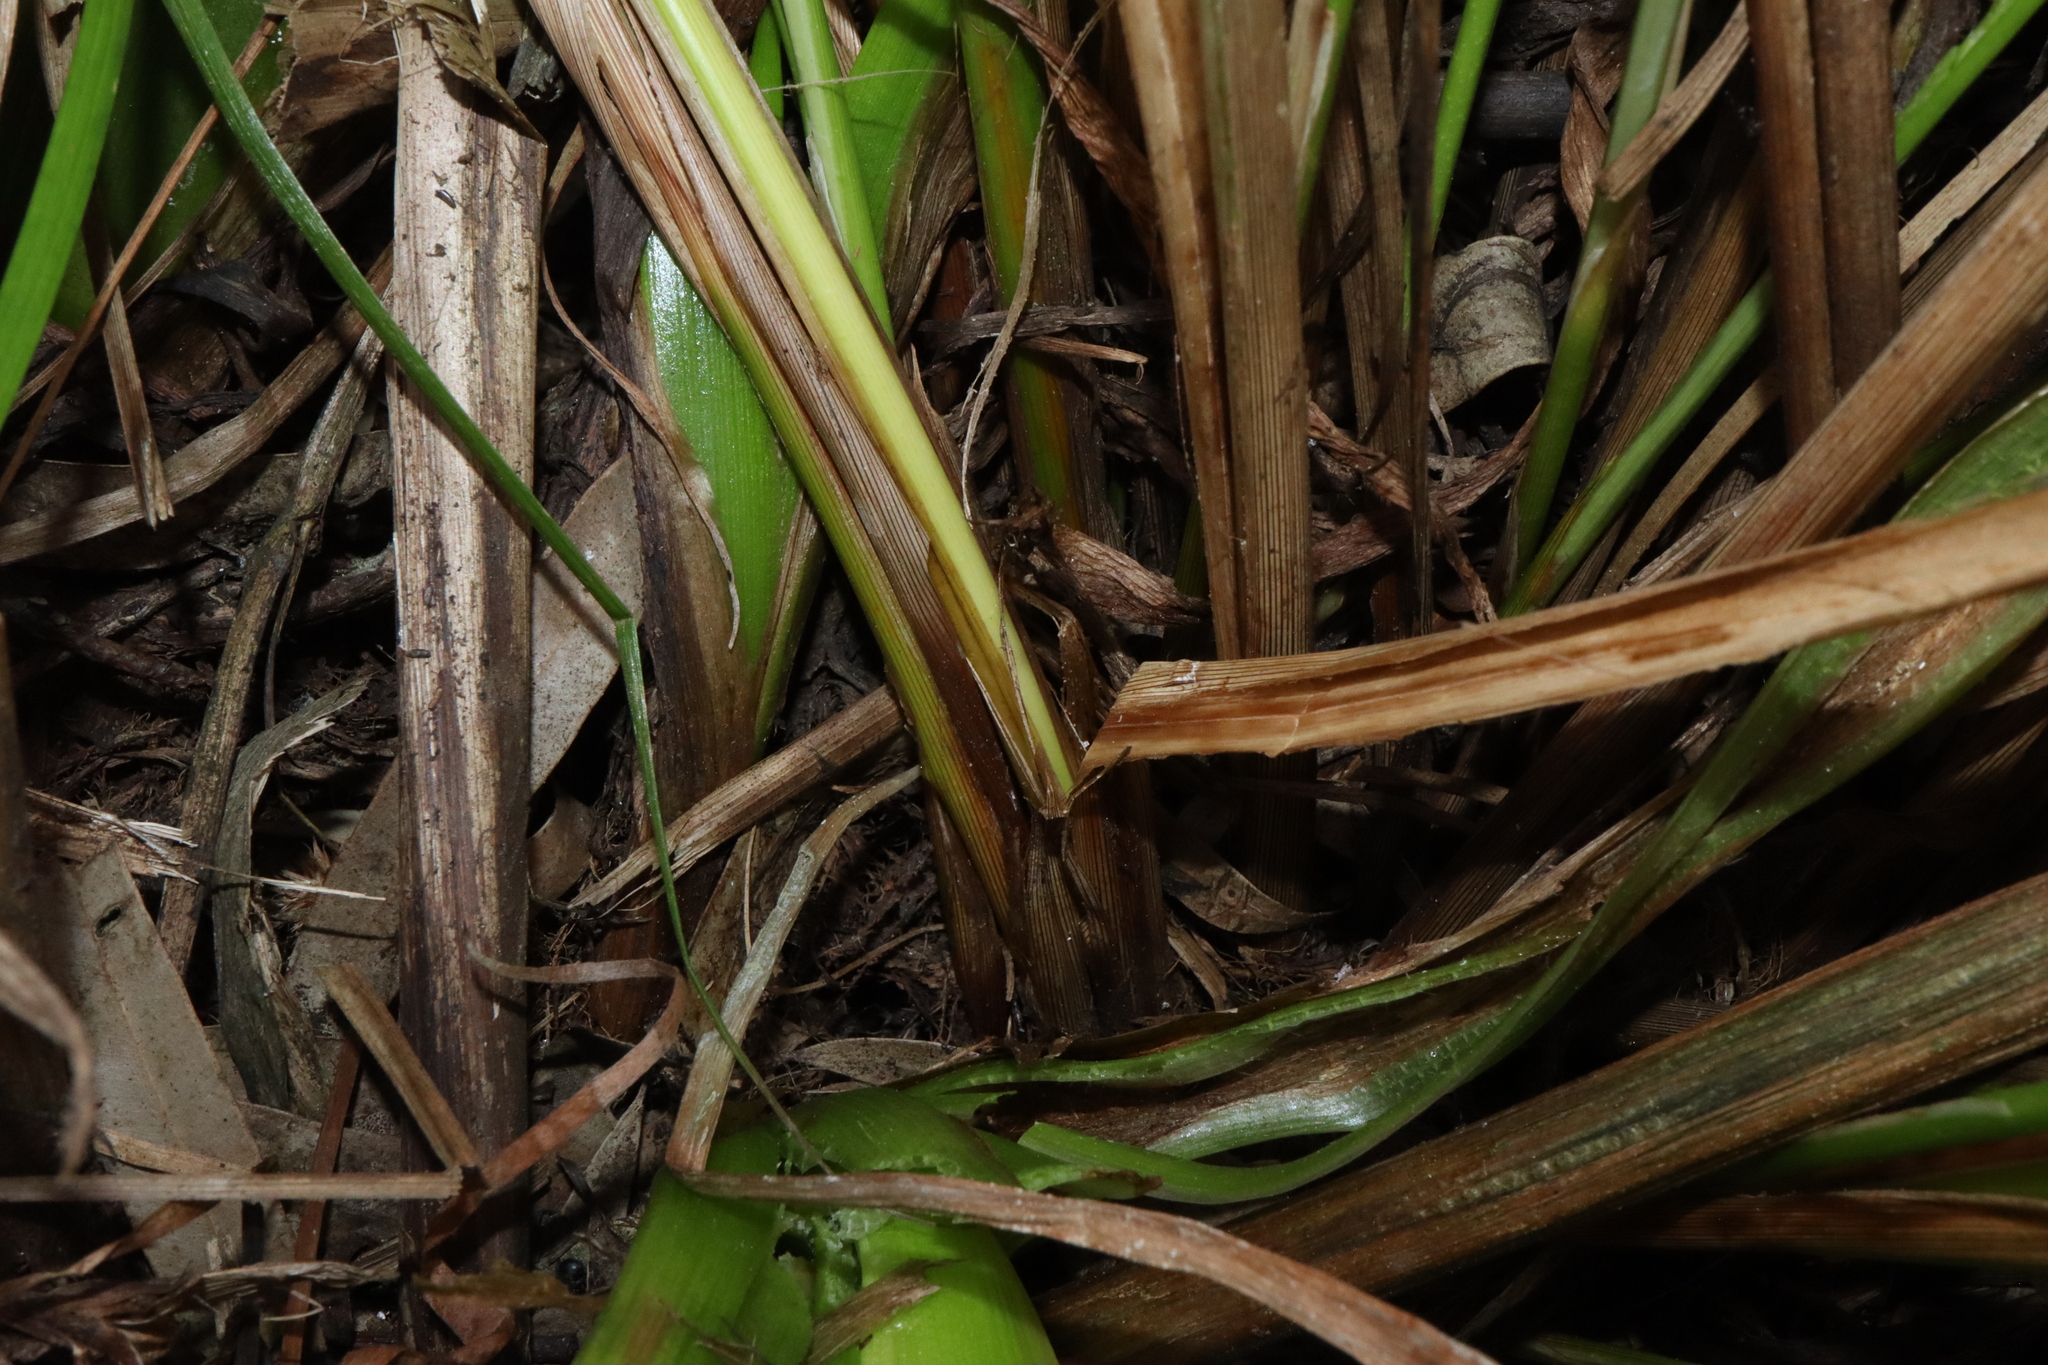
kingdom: Plantae
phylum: Tracheophyta
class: Liliopsida
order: Poales
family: Cyperaceae
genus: Carex
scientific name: Carex appressa
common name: Tussock sedge
